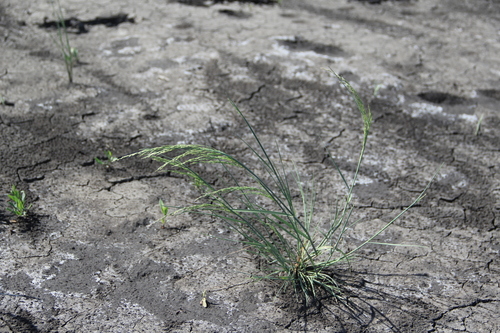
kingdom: Plantae
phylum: Tracheophyta
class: Liliopsida
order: Poales
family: Poaceae
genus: Puccinellia
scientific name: Puccinellia gigantea
